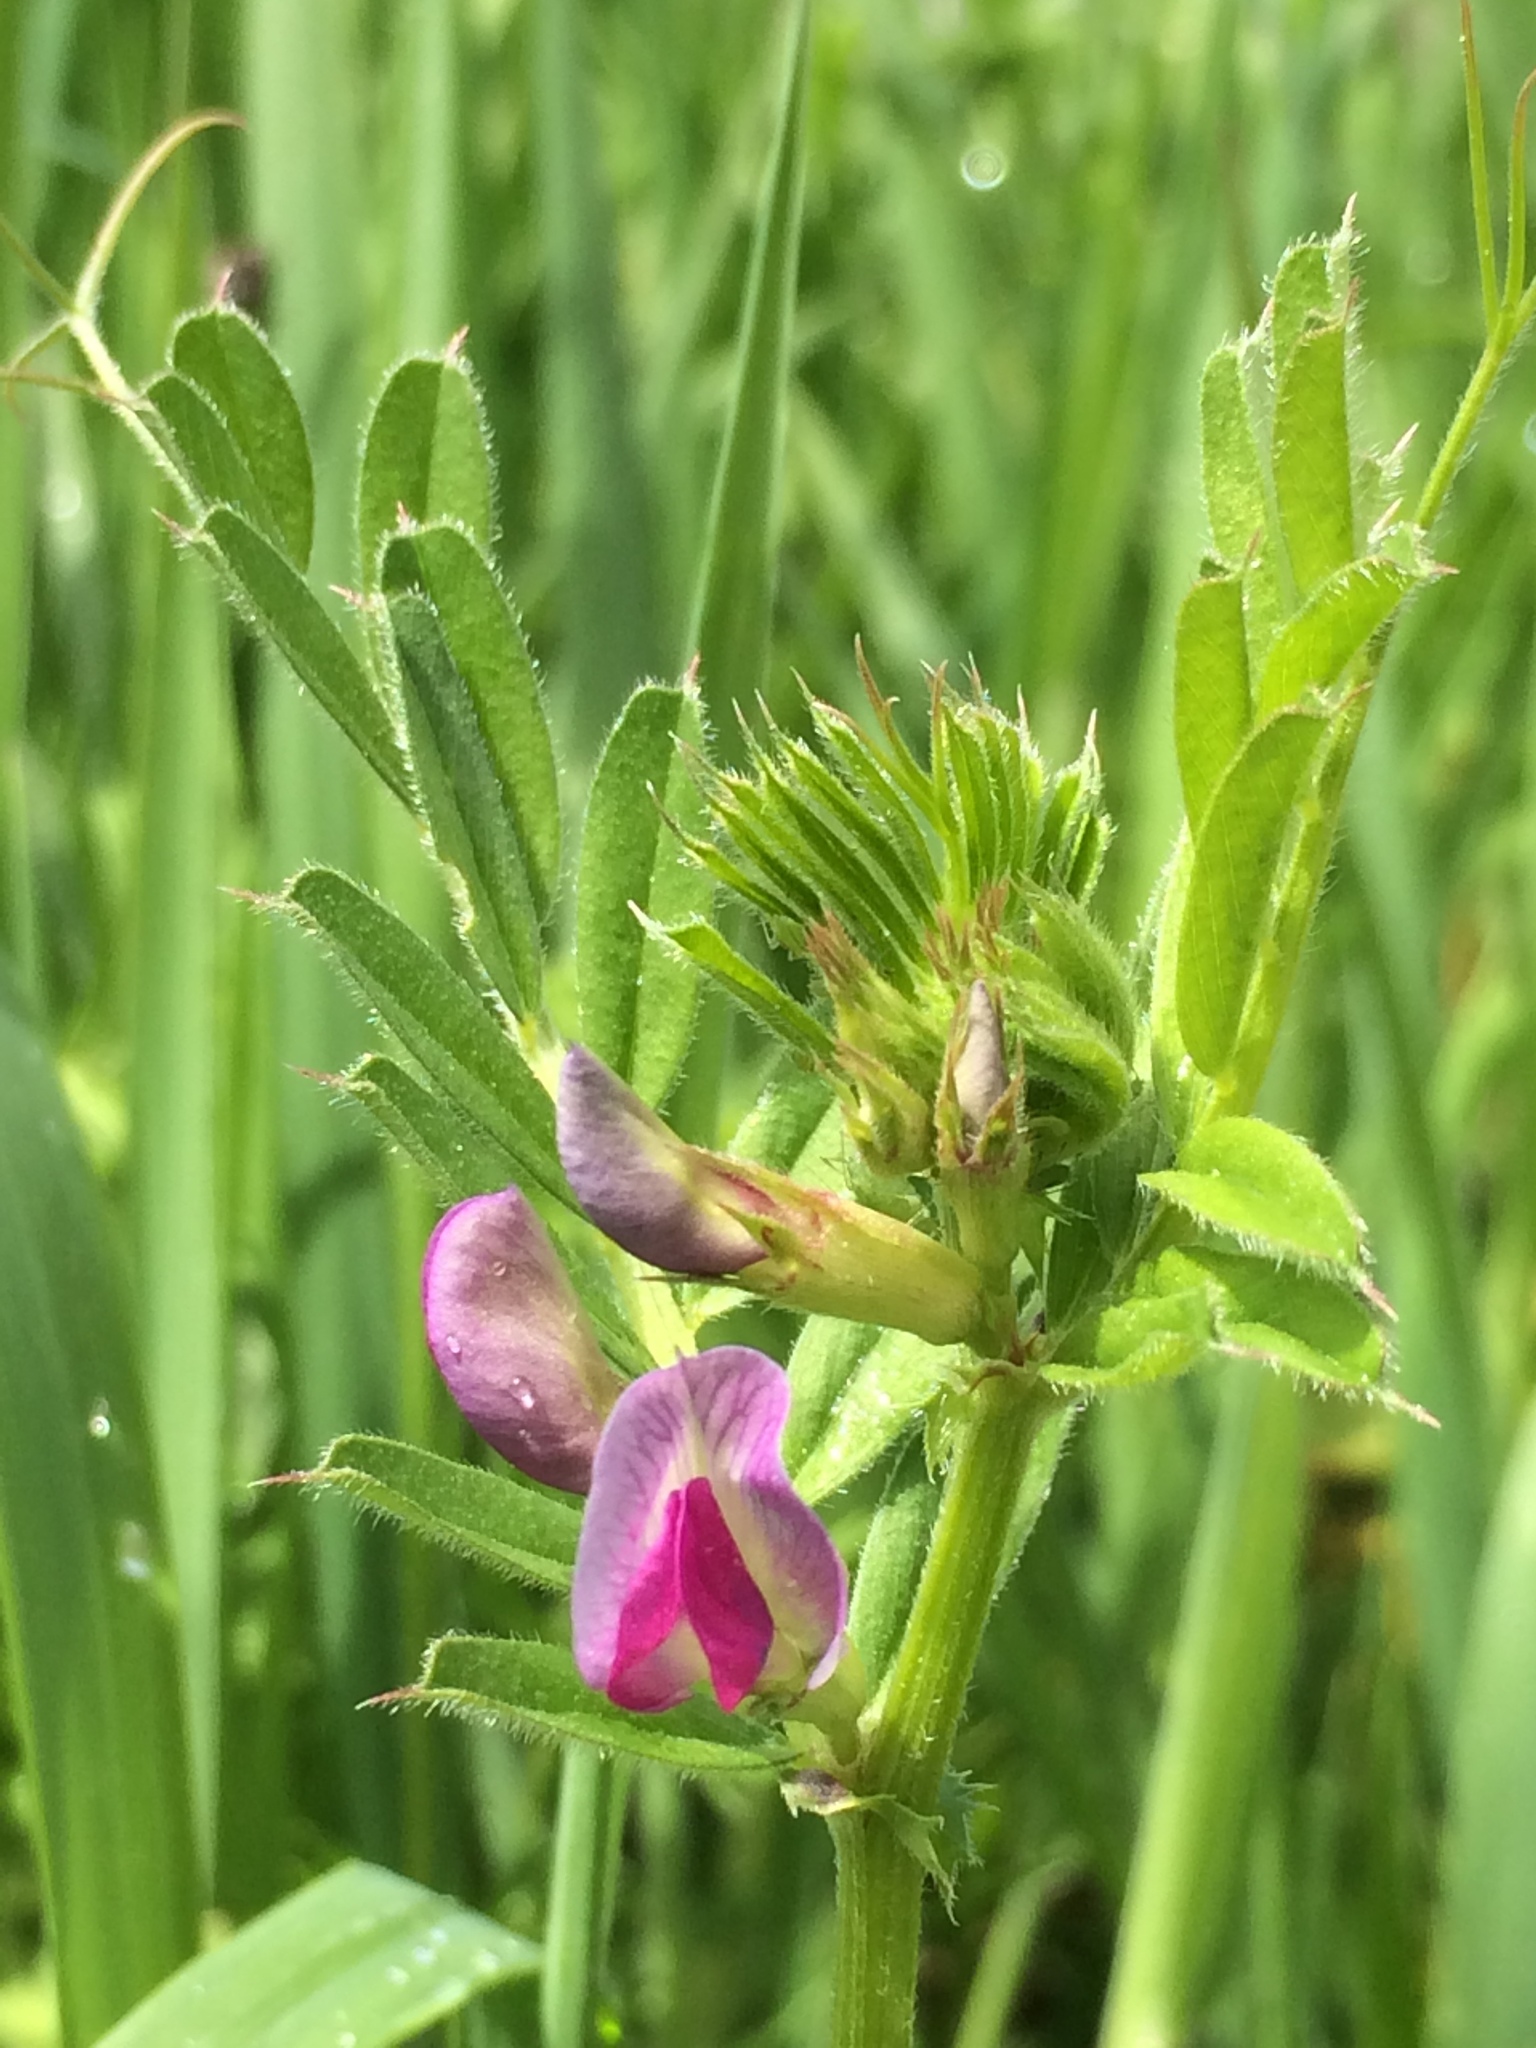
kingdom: Plantae
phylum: Tracheophyta
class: Magnoliopsida
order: Fabales
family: Fabaceae
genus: Vicia
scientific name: Vicia sativa
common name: Garden vetch
